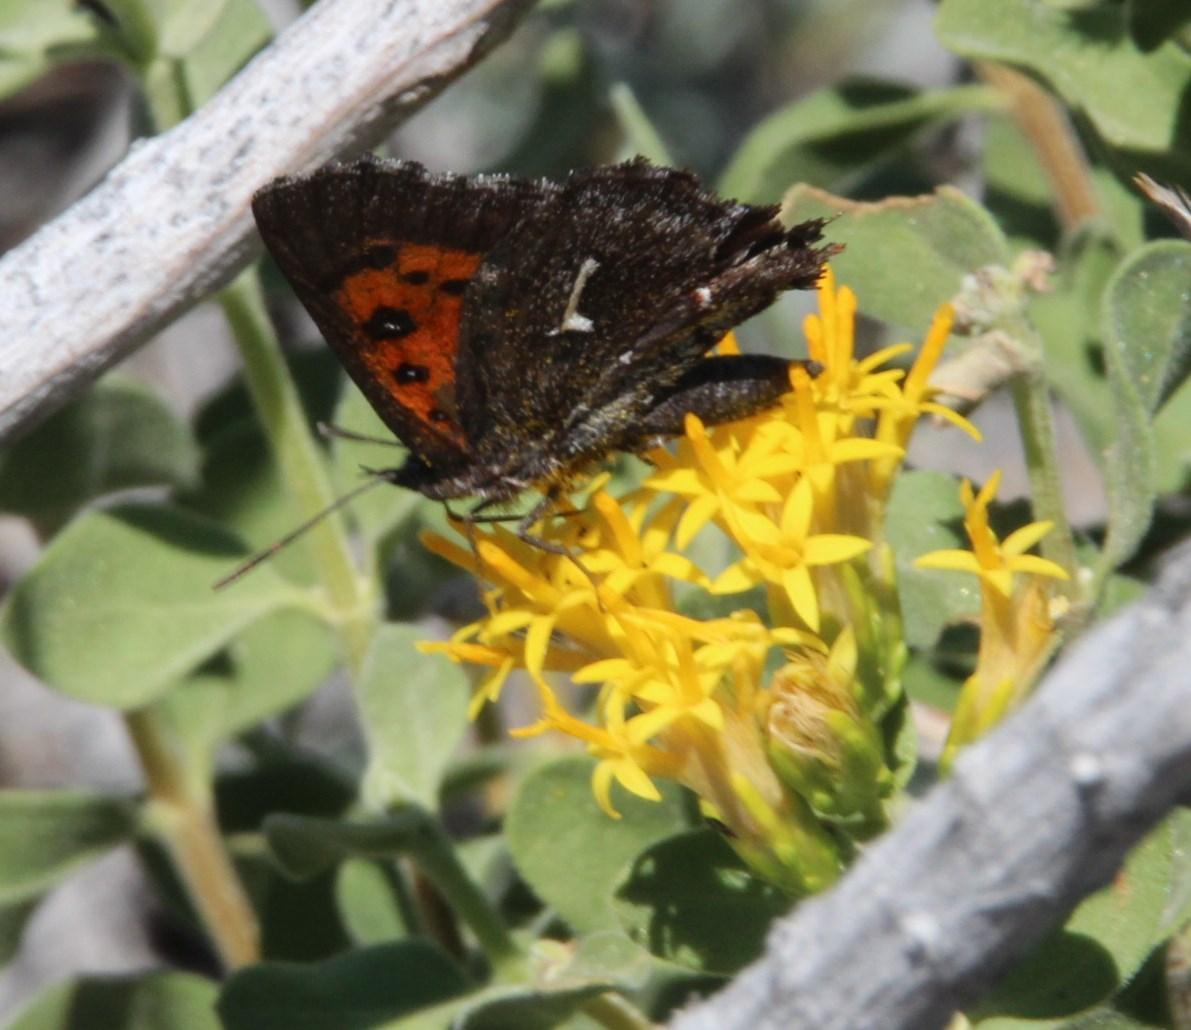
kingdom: Animalia
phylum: Arthropoda
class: Insecta
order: Lepidoptera
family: Lycaenidae
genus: Phasis
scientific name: Phasis clavum
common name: Namaqua arrowhead
